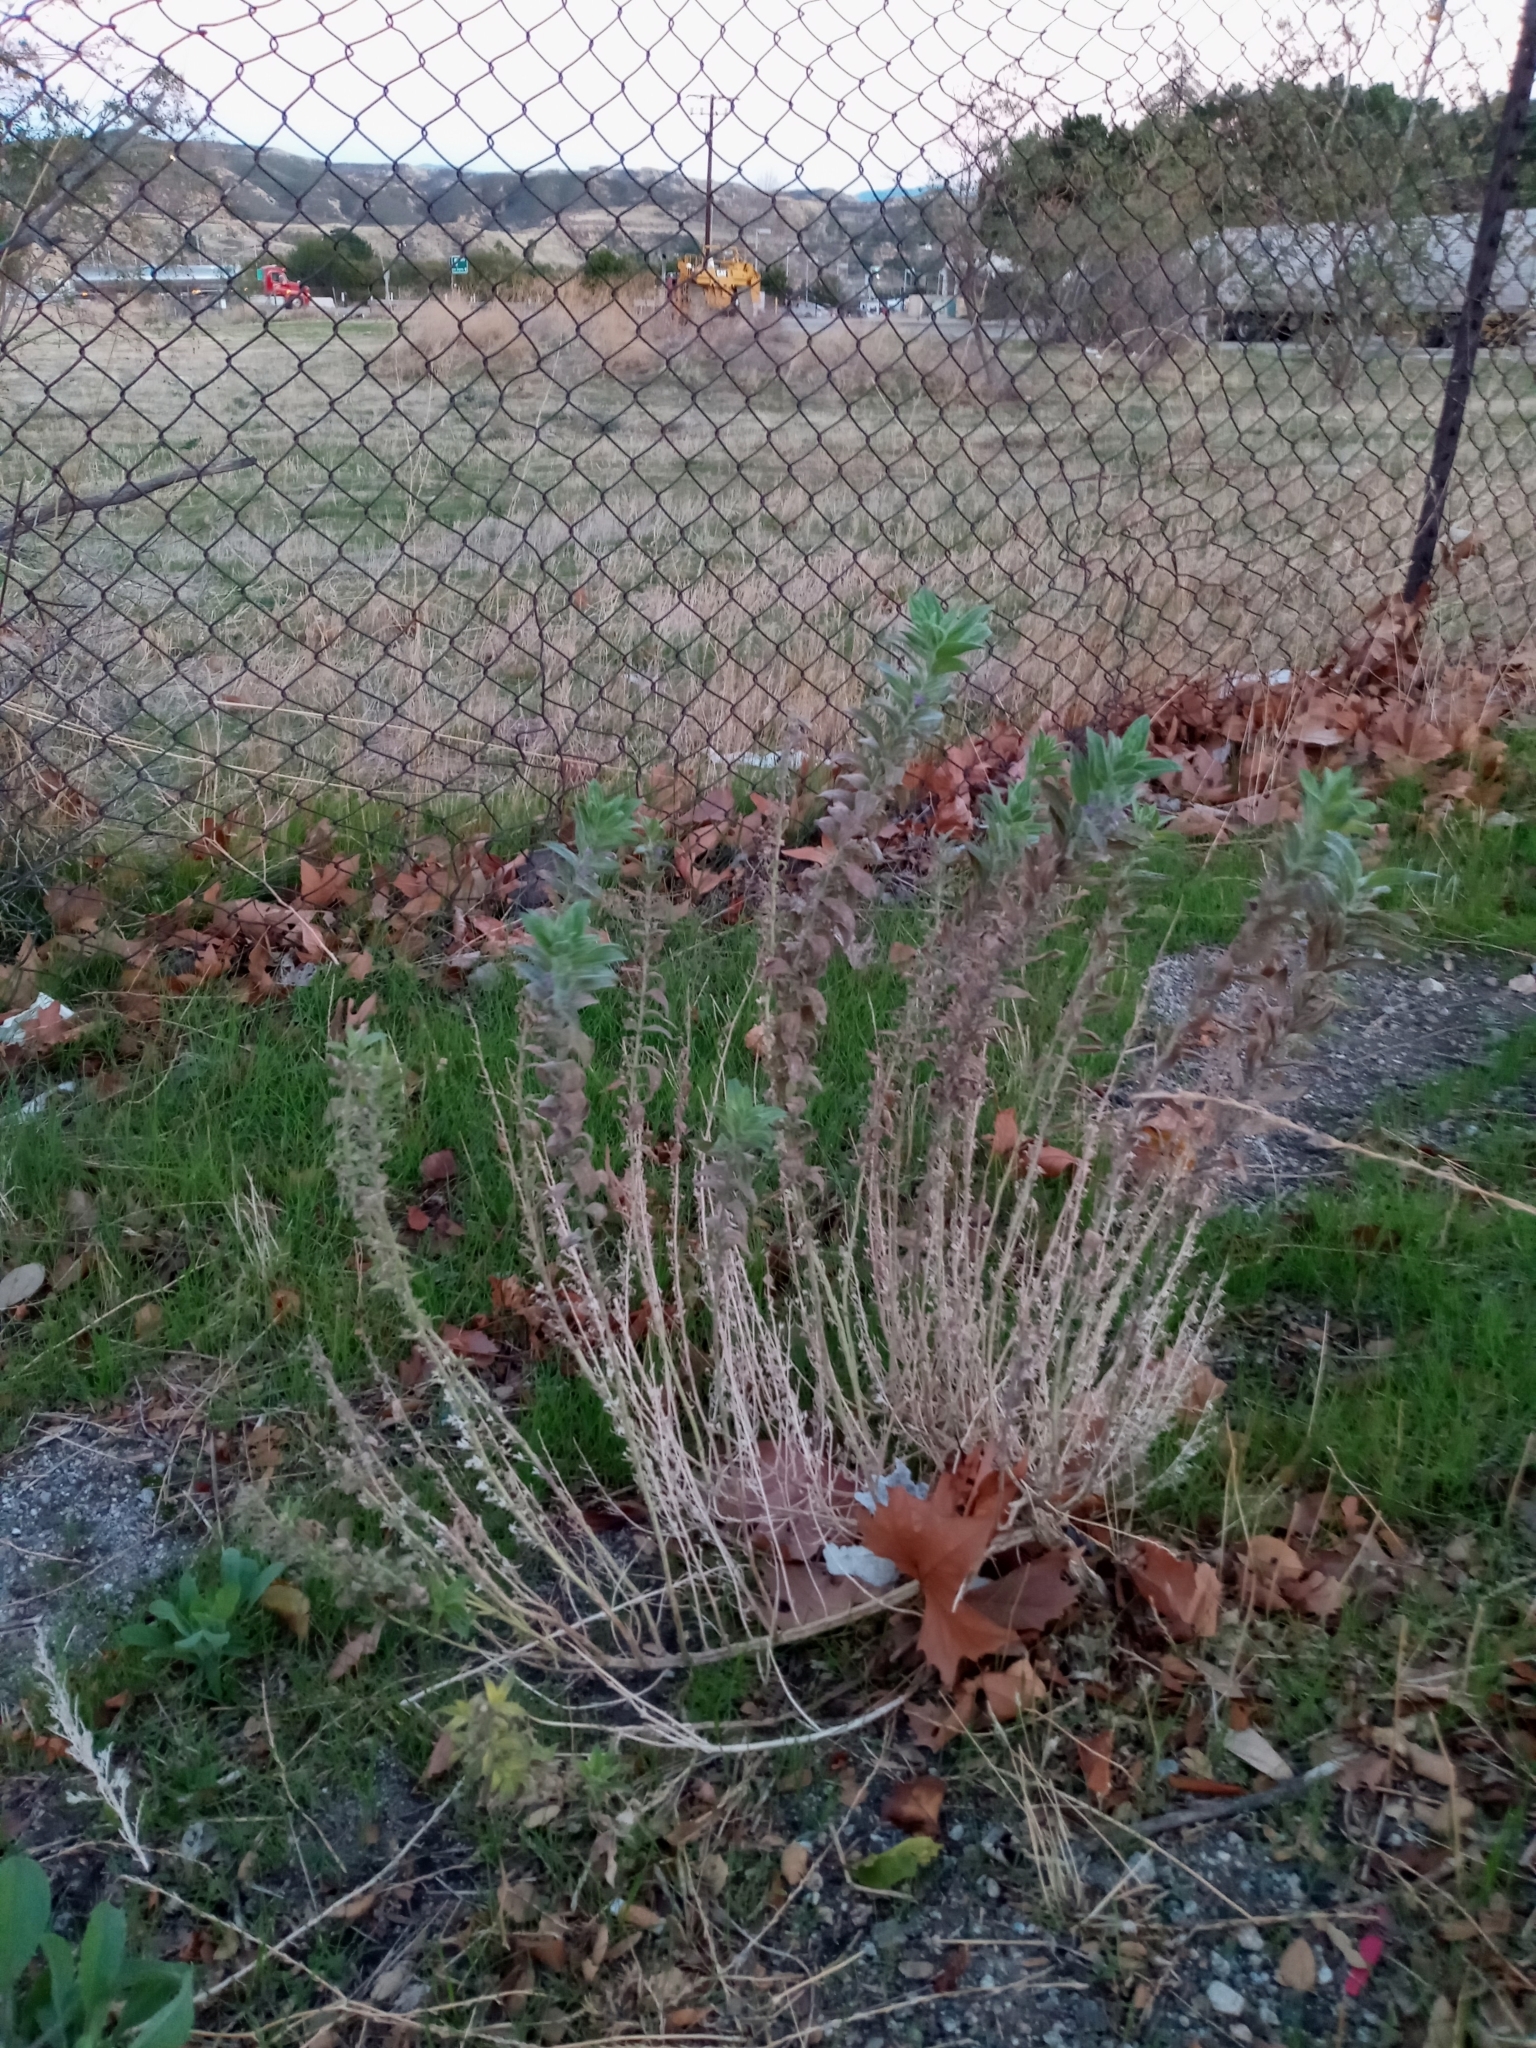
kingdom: Plantae
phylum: Tracheophyta
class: Magnoliopsida
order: Lamiales
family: Lamiaceae
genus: Trichostema
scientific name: Trichostema lanceolatum
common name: Vinegar-weed
